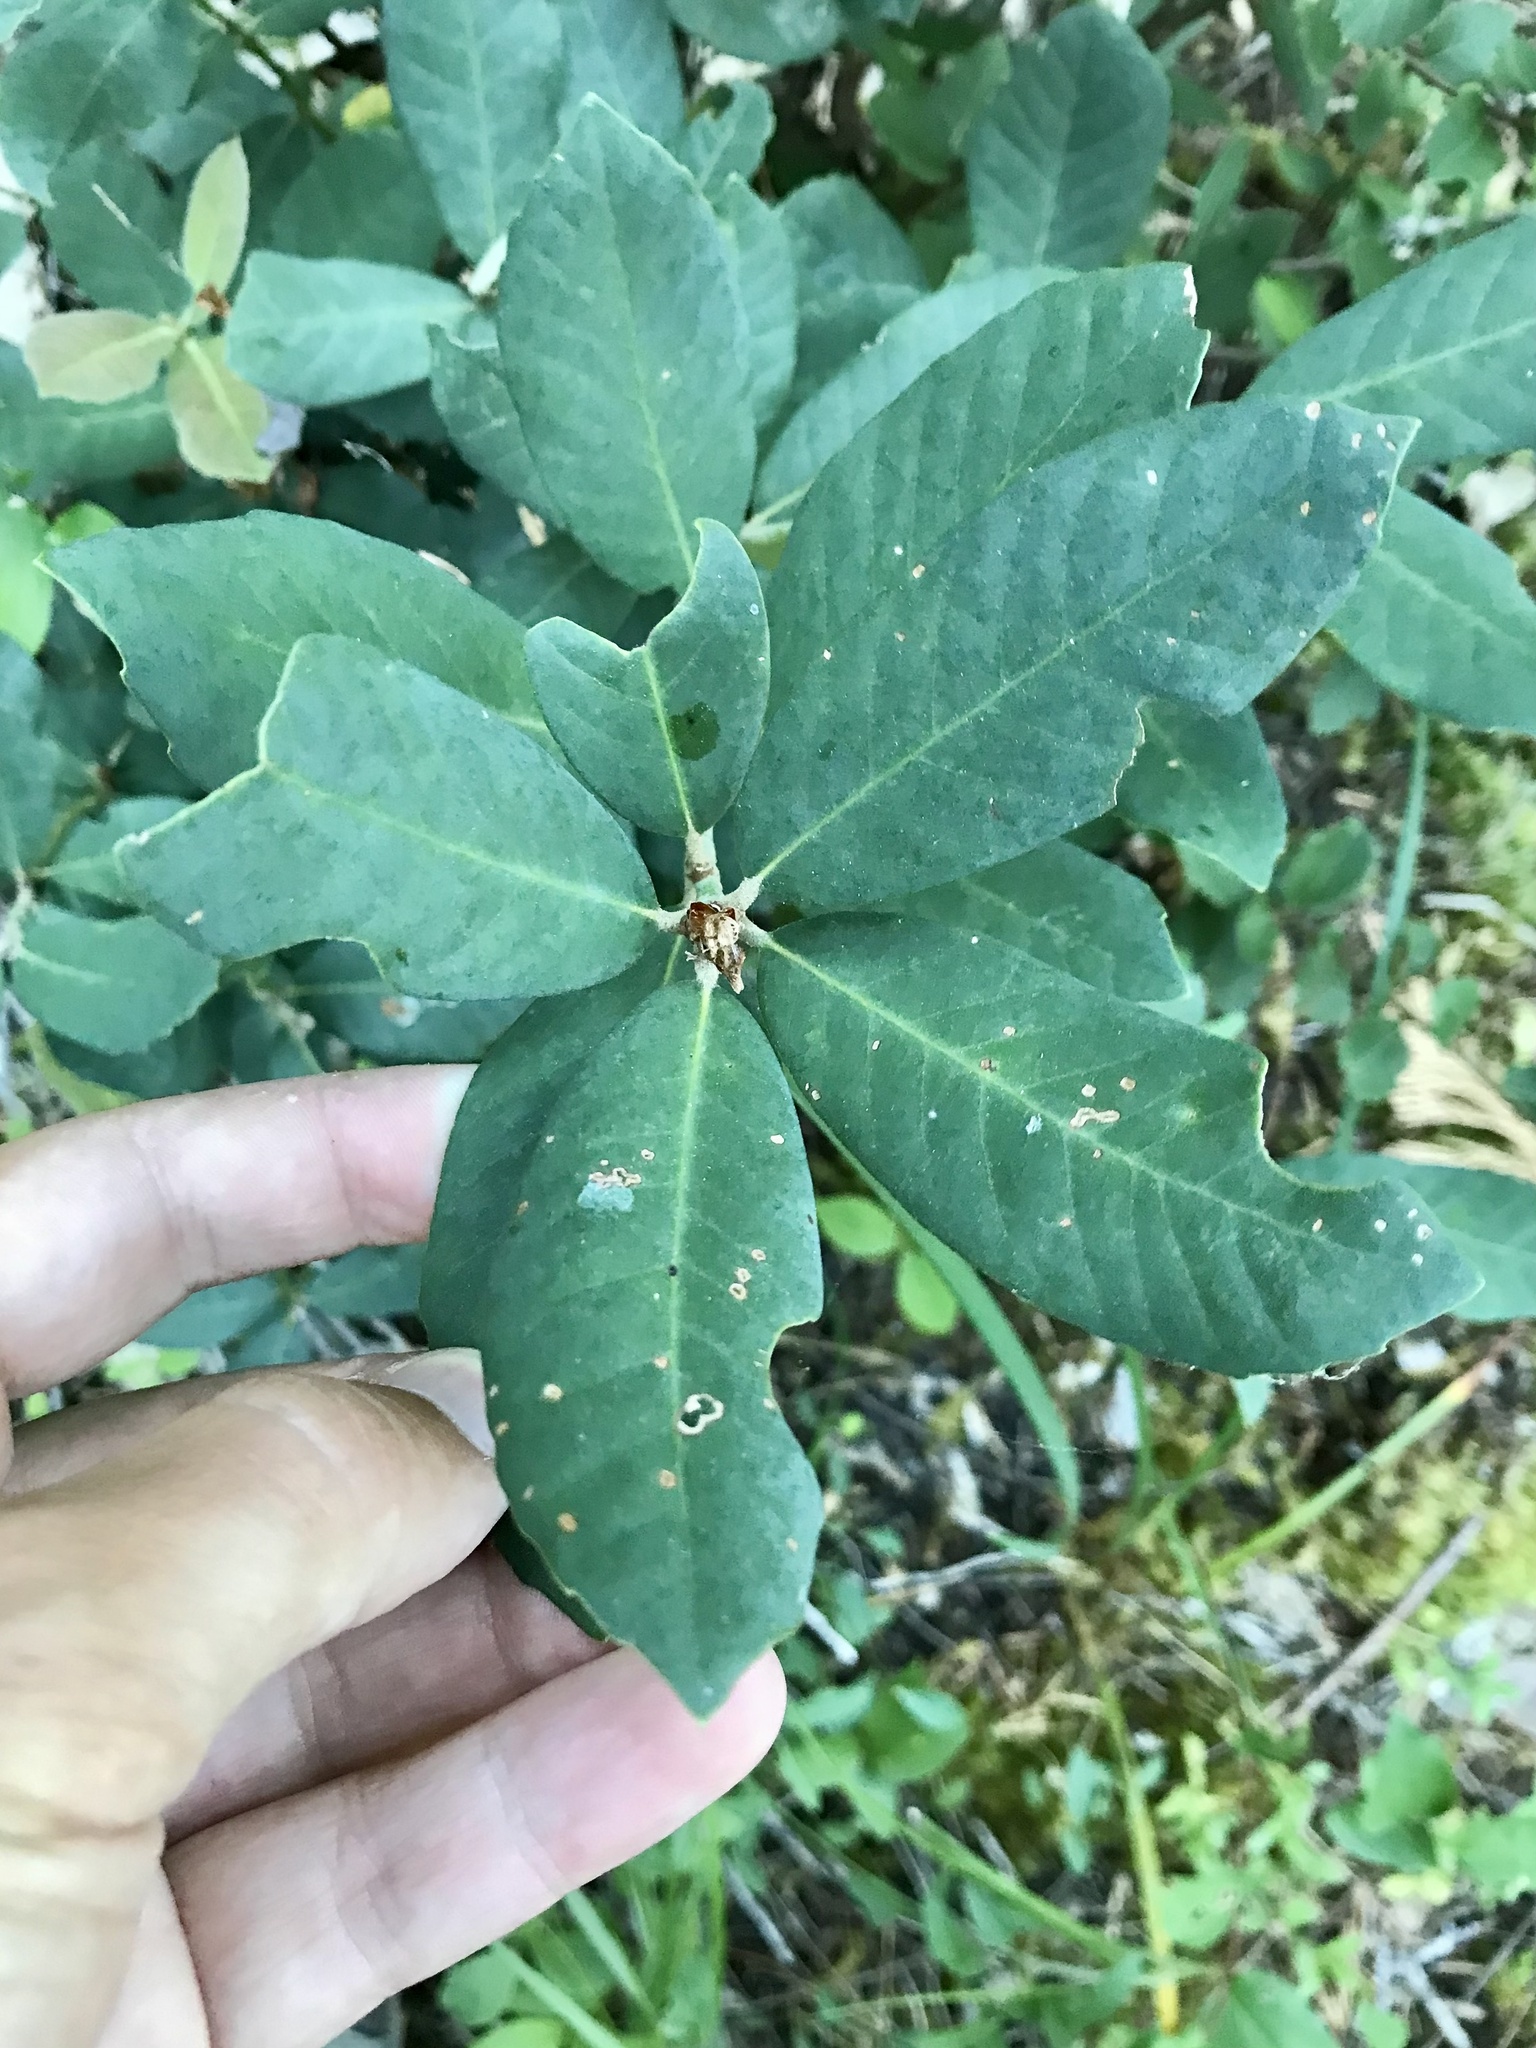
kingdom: Plantae
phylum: Tracheophyta
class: Magnoliopsida
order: Fagales
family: Fagaceae
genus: Notholithocarpus
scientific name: Notholithocarpus densiflorus
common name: Tan bark oak
